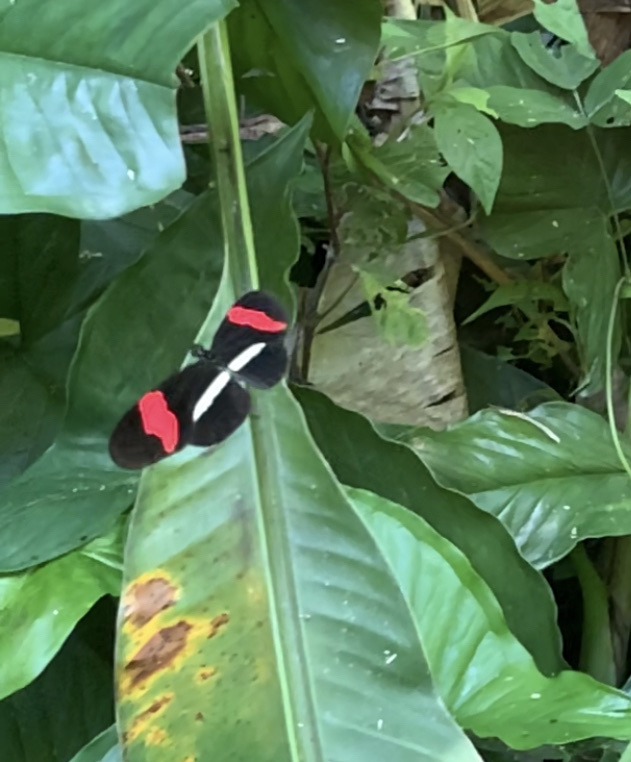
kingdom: Animalia
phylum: Arthropoda
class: Insecta
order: Lepidoptera
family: Nymphalidae
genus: Tirumala
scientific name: Tirumala petiverana
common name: Blue monarch
